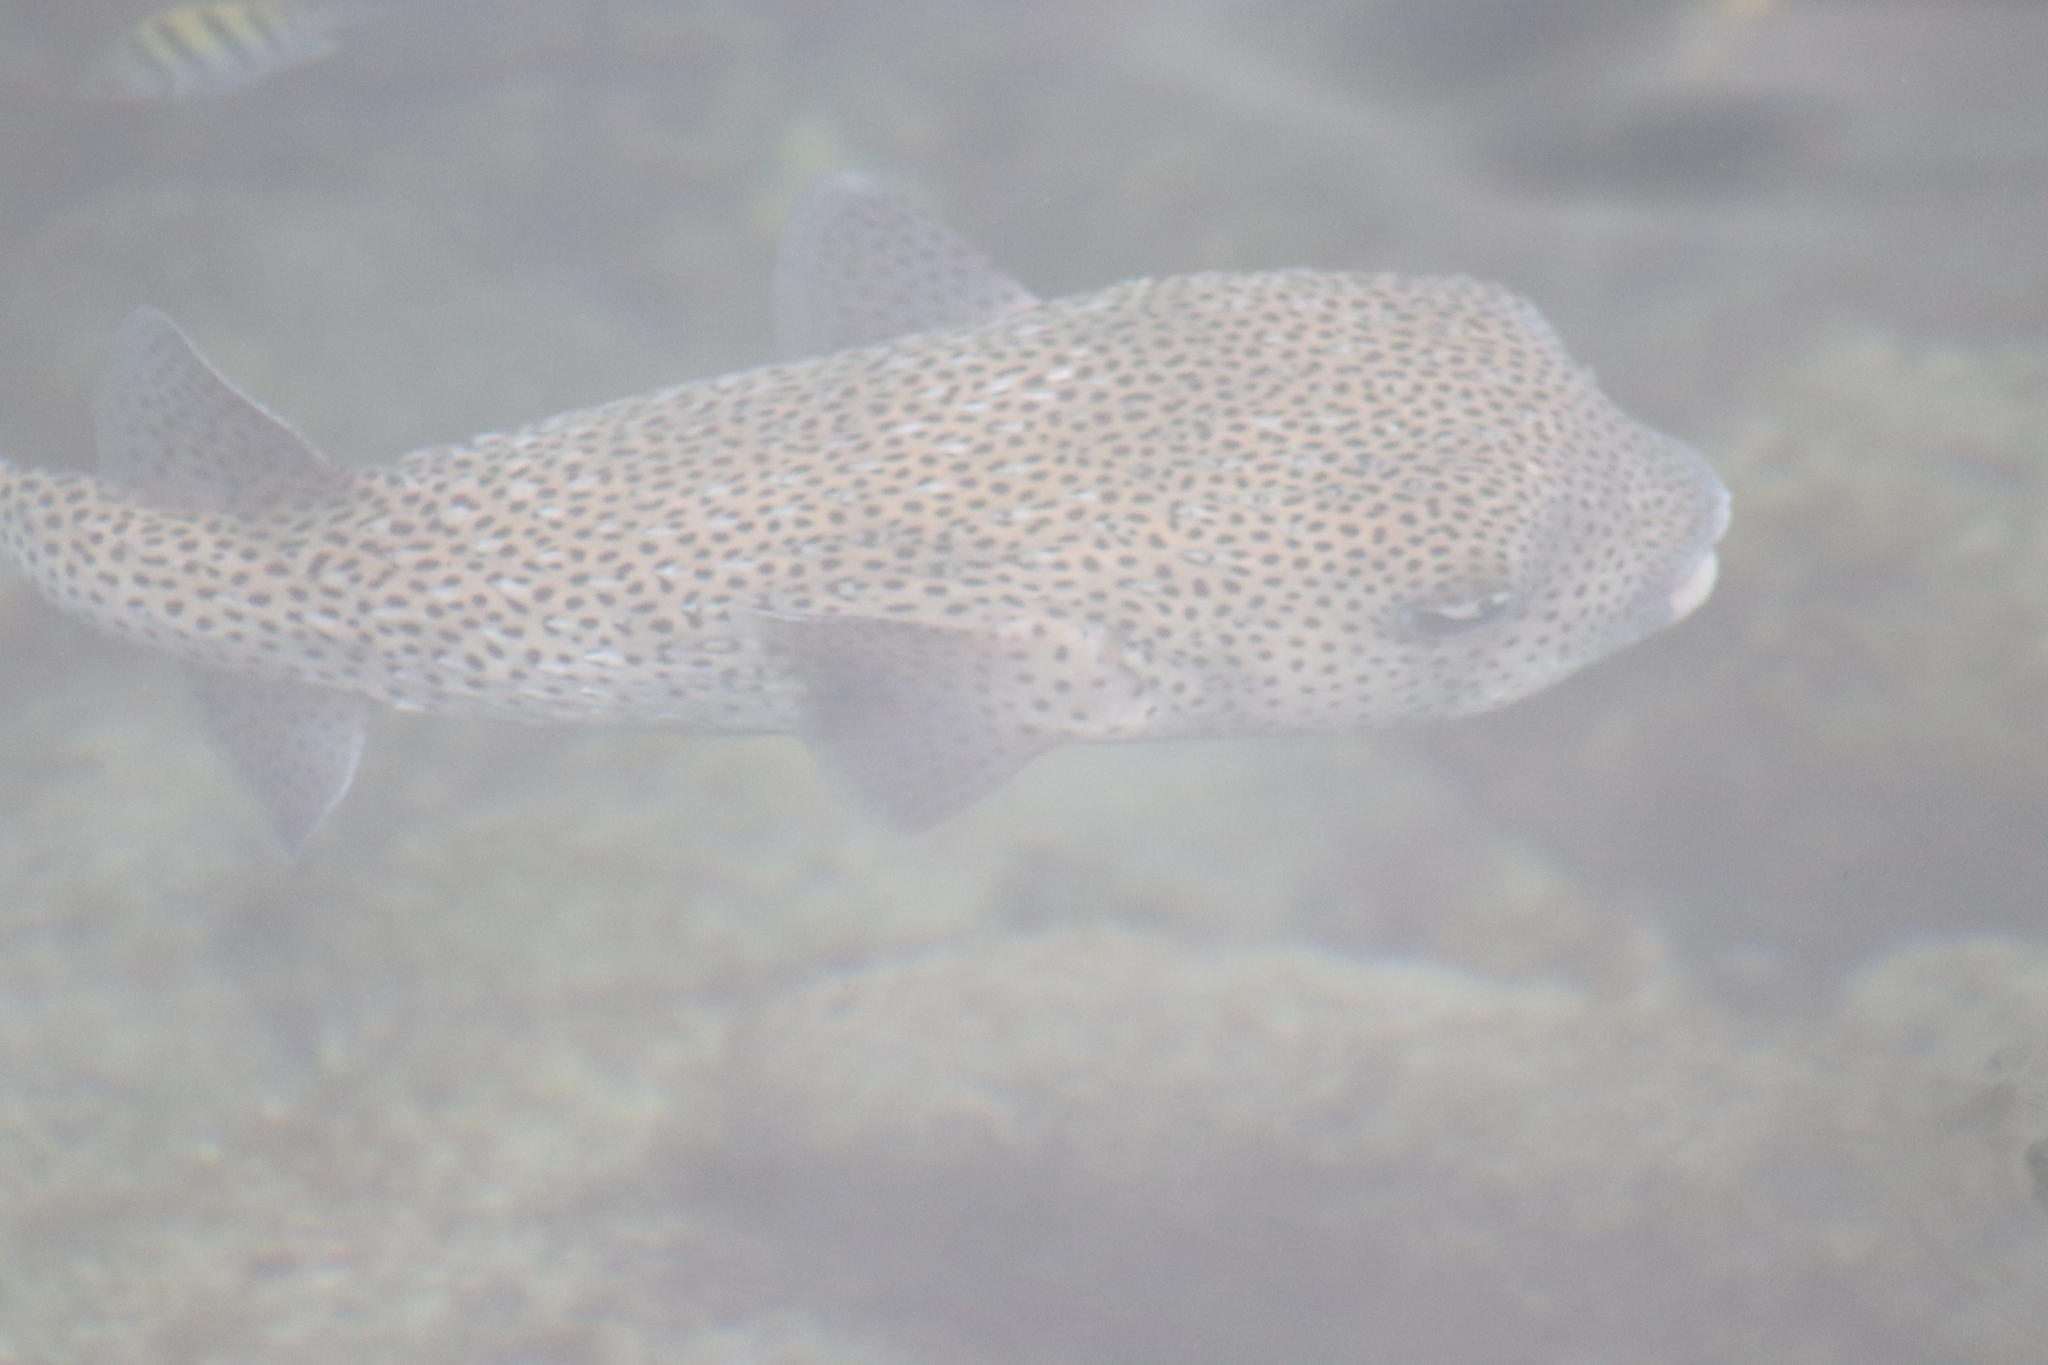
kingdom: Animalia
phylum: Chordata
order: Tetraodontiformes
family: Diodontidae
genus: Diodon
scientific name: Diodon hystrix
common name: Giant porcupinefish
